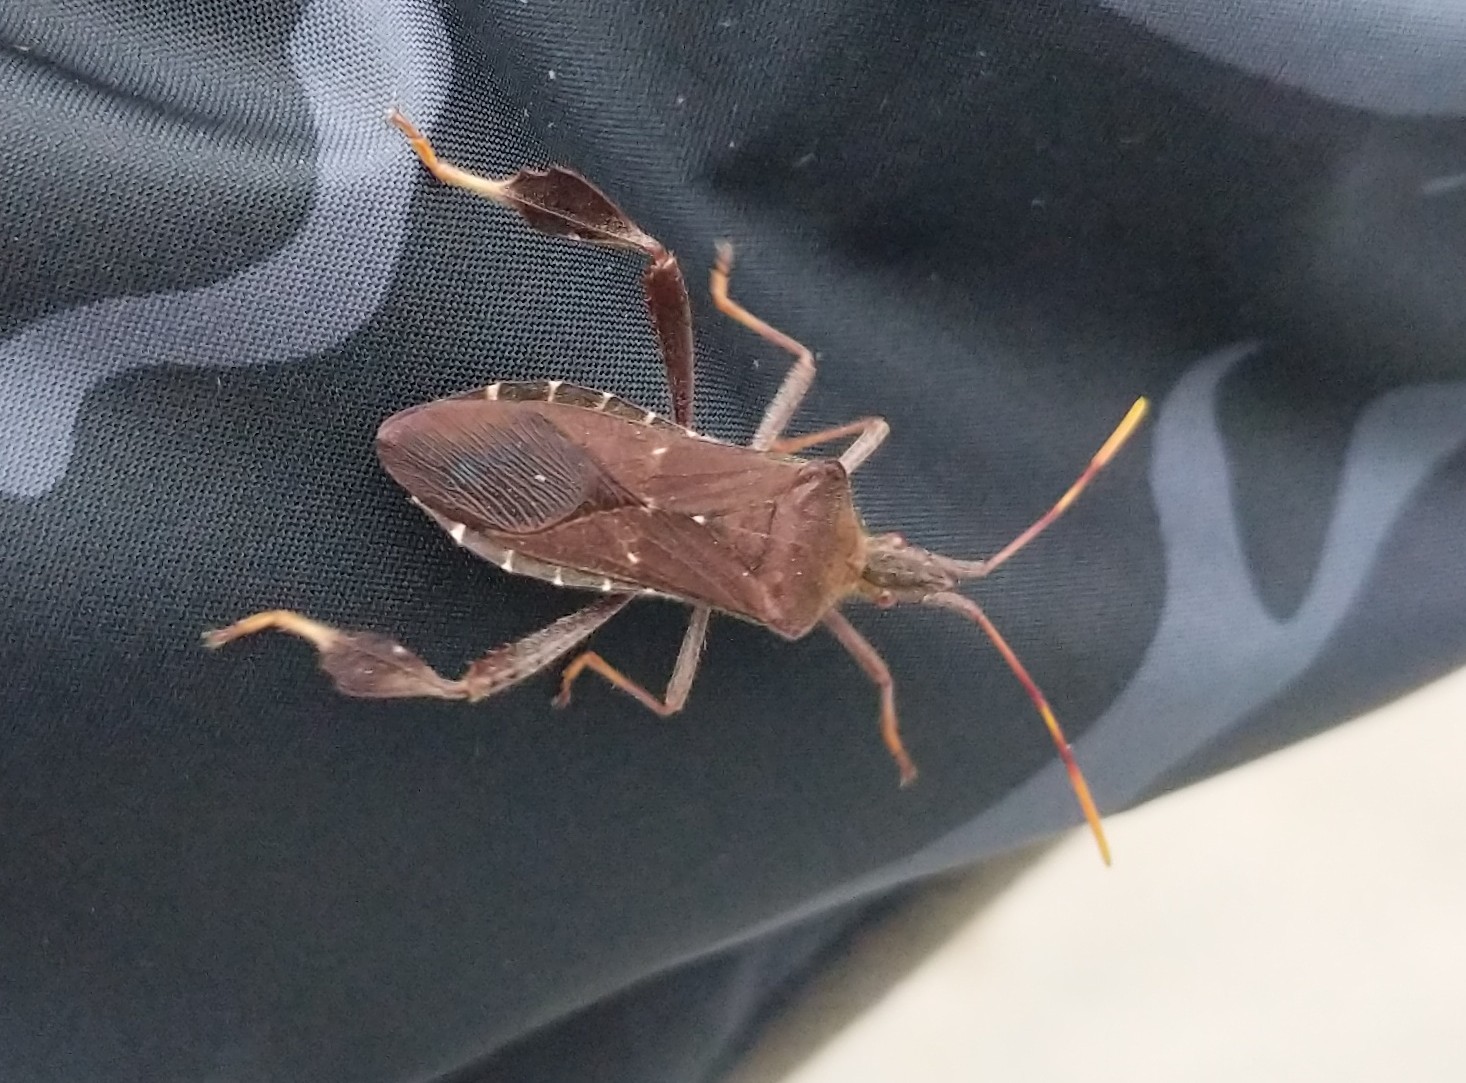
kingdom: Animalia
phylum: Arthropoda
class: Insecta
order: Hemiptera
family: Coreidae
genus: Leptoglossus
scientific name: Leptoglossus oppositus
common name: Northern leaf-footed bug
